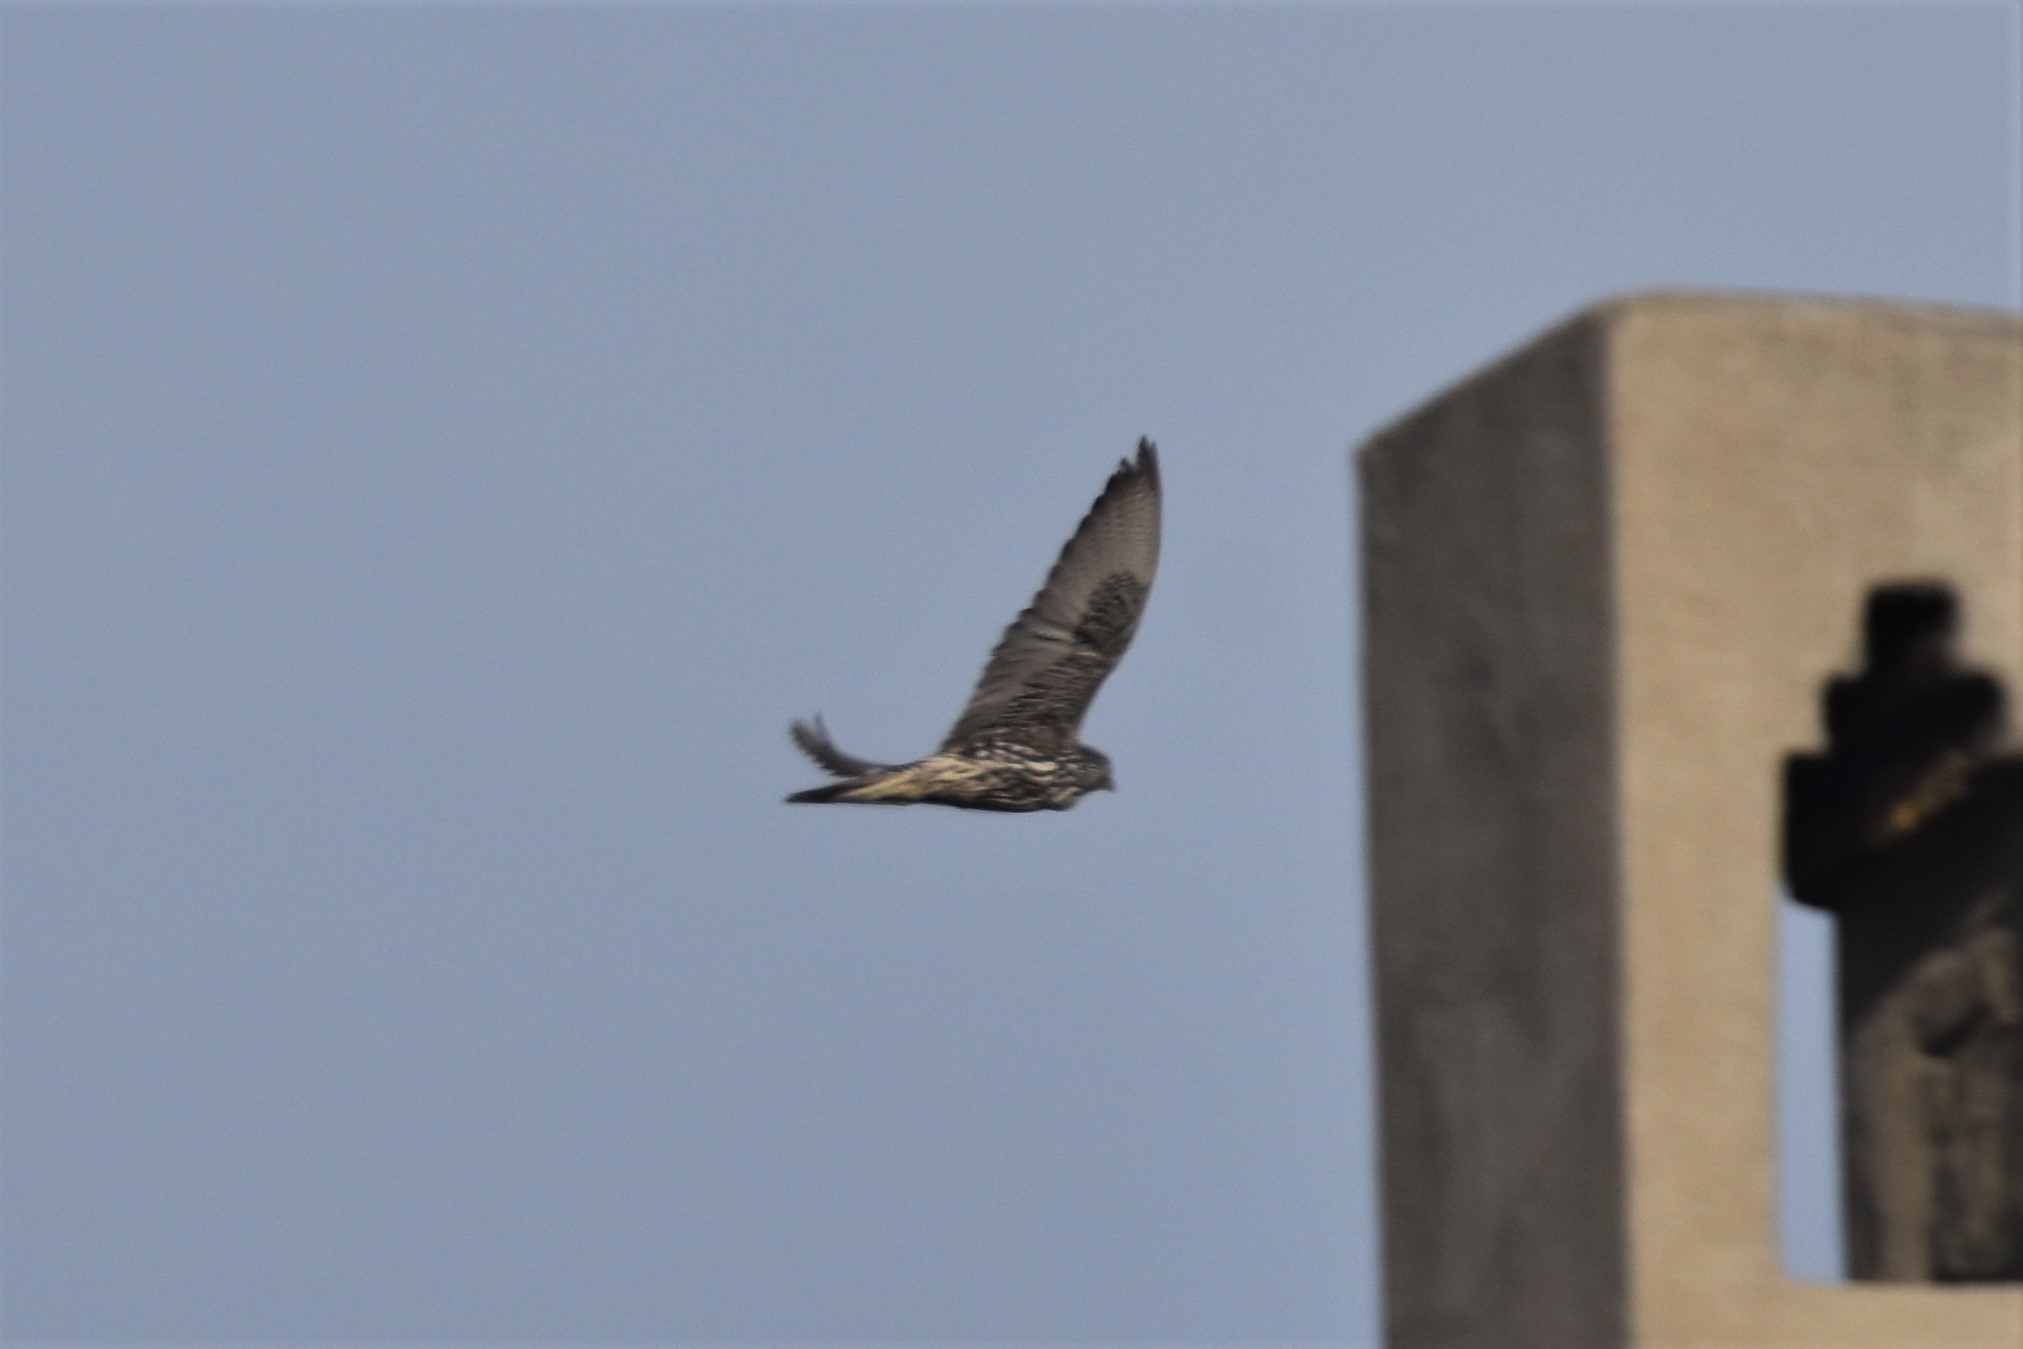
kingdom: Animalia
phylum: Chordata
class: Aves
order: Falconiformes
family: Falconidae
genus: Falco
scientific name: Falco rusticolus
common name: Gyrfalcon
